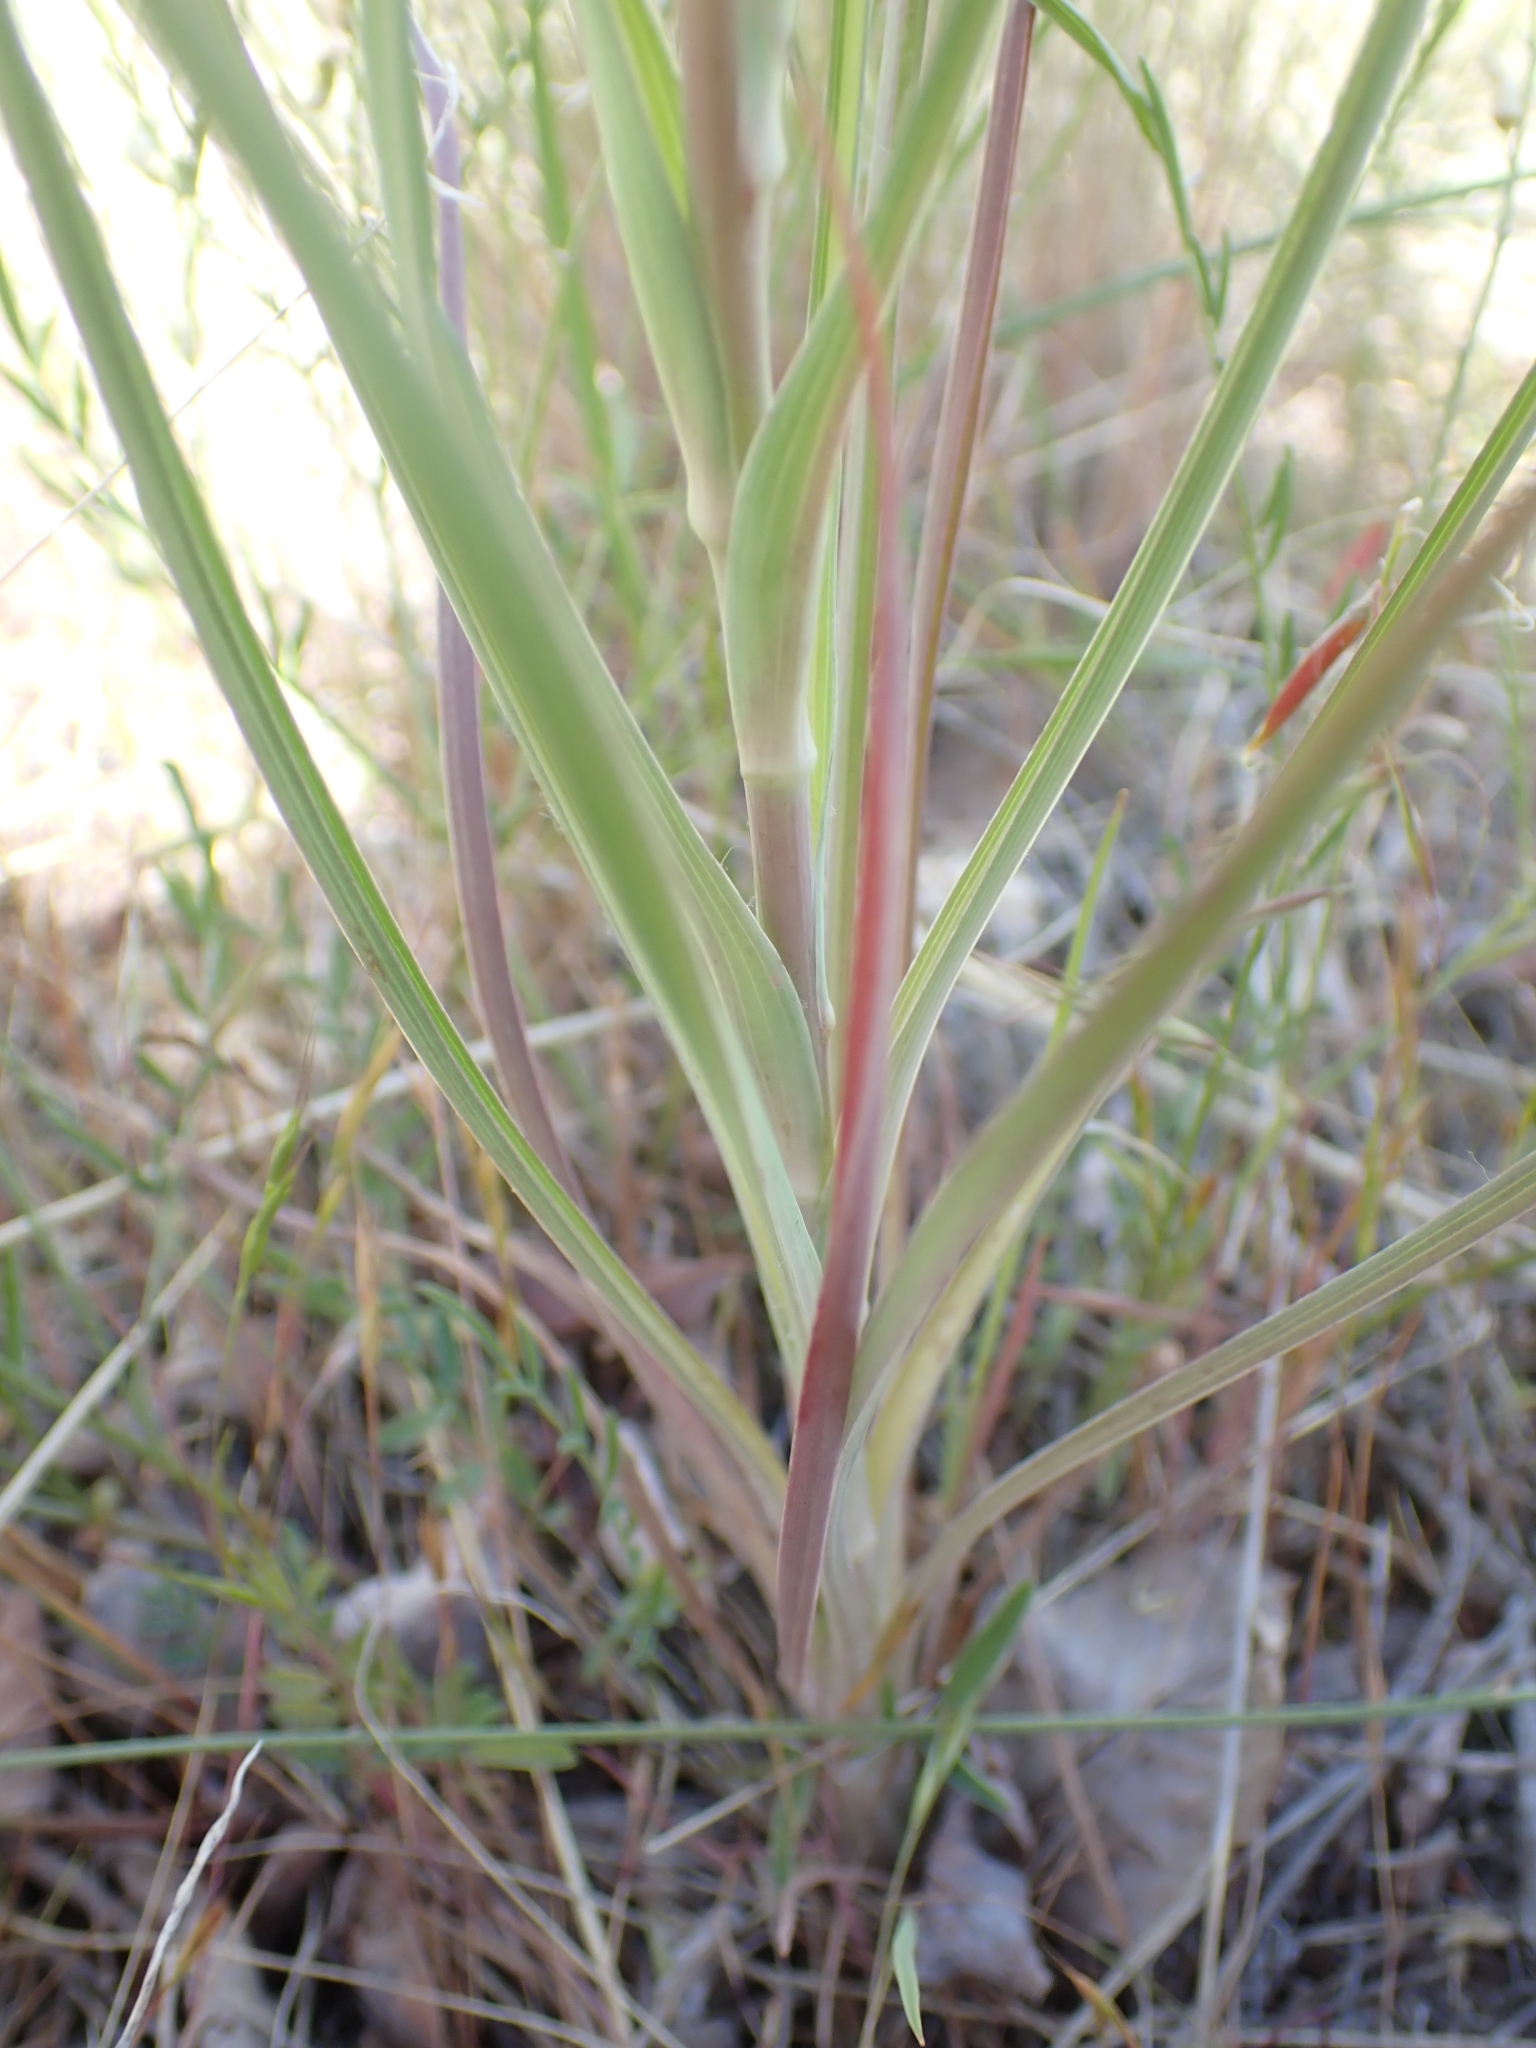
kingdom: Plantae
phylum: Tracheophyta
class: Magnoliopsida
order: Asterales
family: Asteraceae
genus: Tragopogon
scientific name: Tragopogon dubius
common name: Yellow salsify
